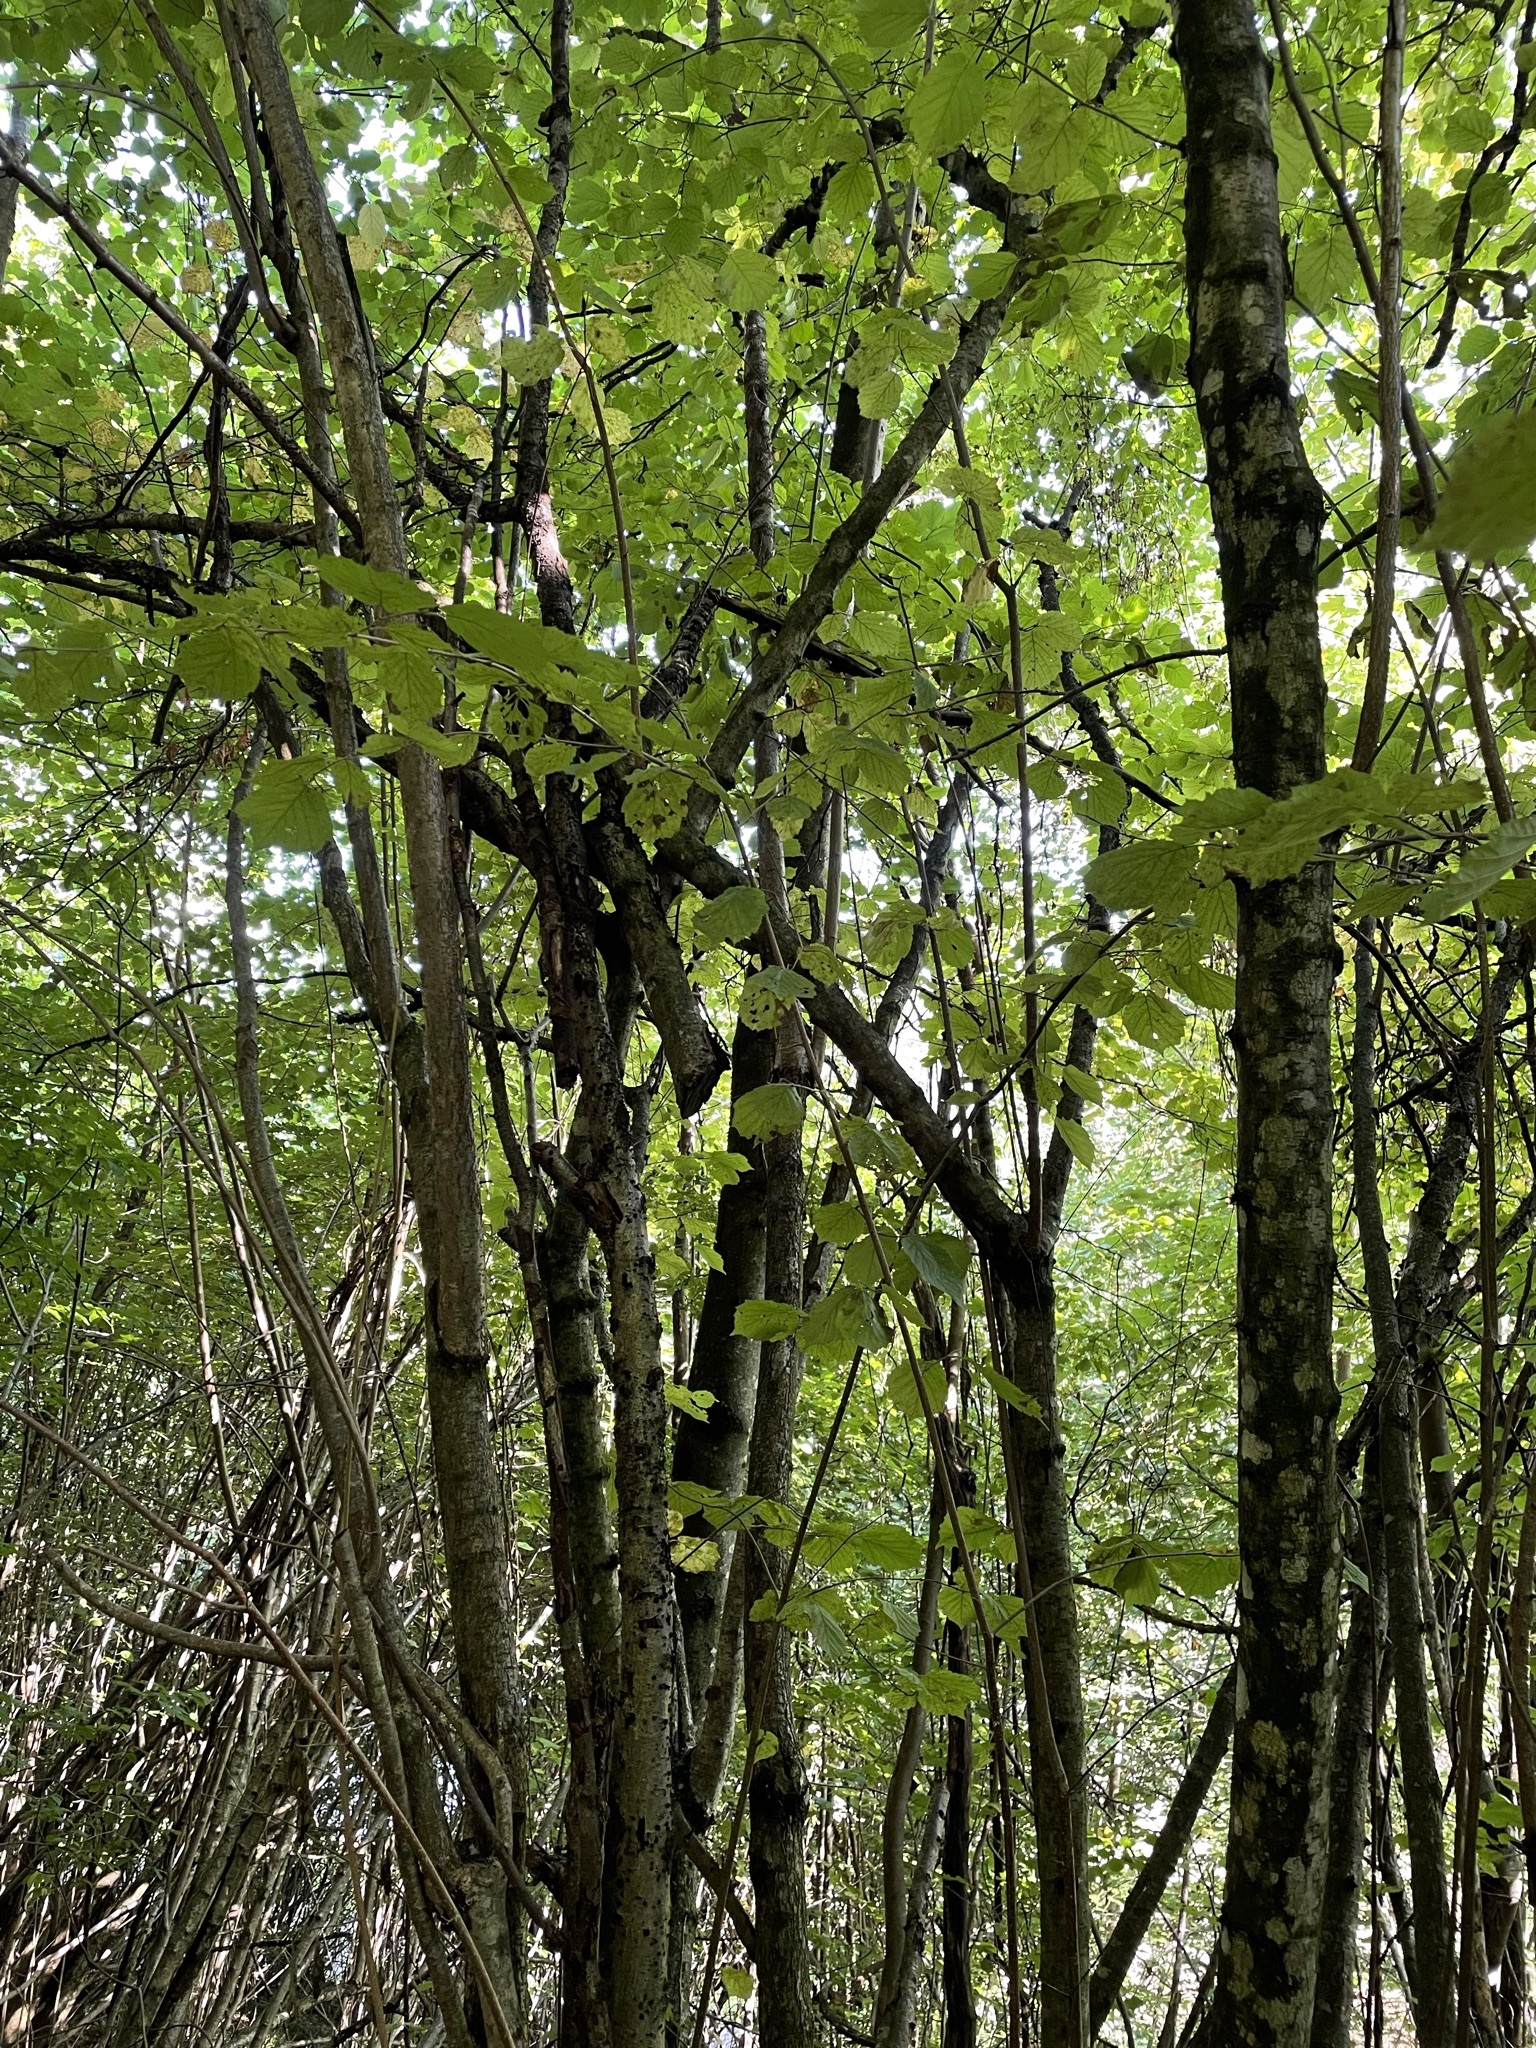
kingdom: Plantae
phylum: Tracheophyta
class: Magnoliopsida
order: Fagales
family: Betulaceae
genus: Corylus
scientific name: Corylus avellana
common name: European hazel
